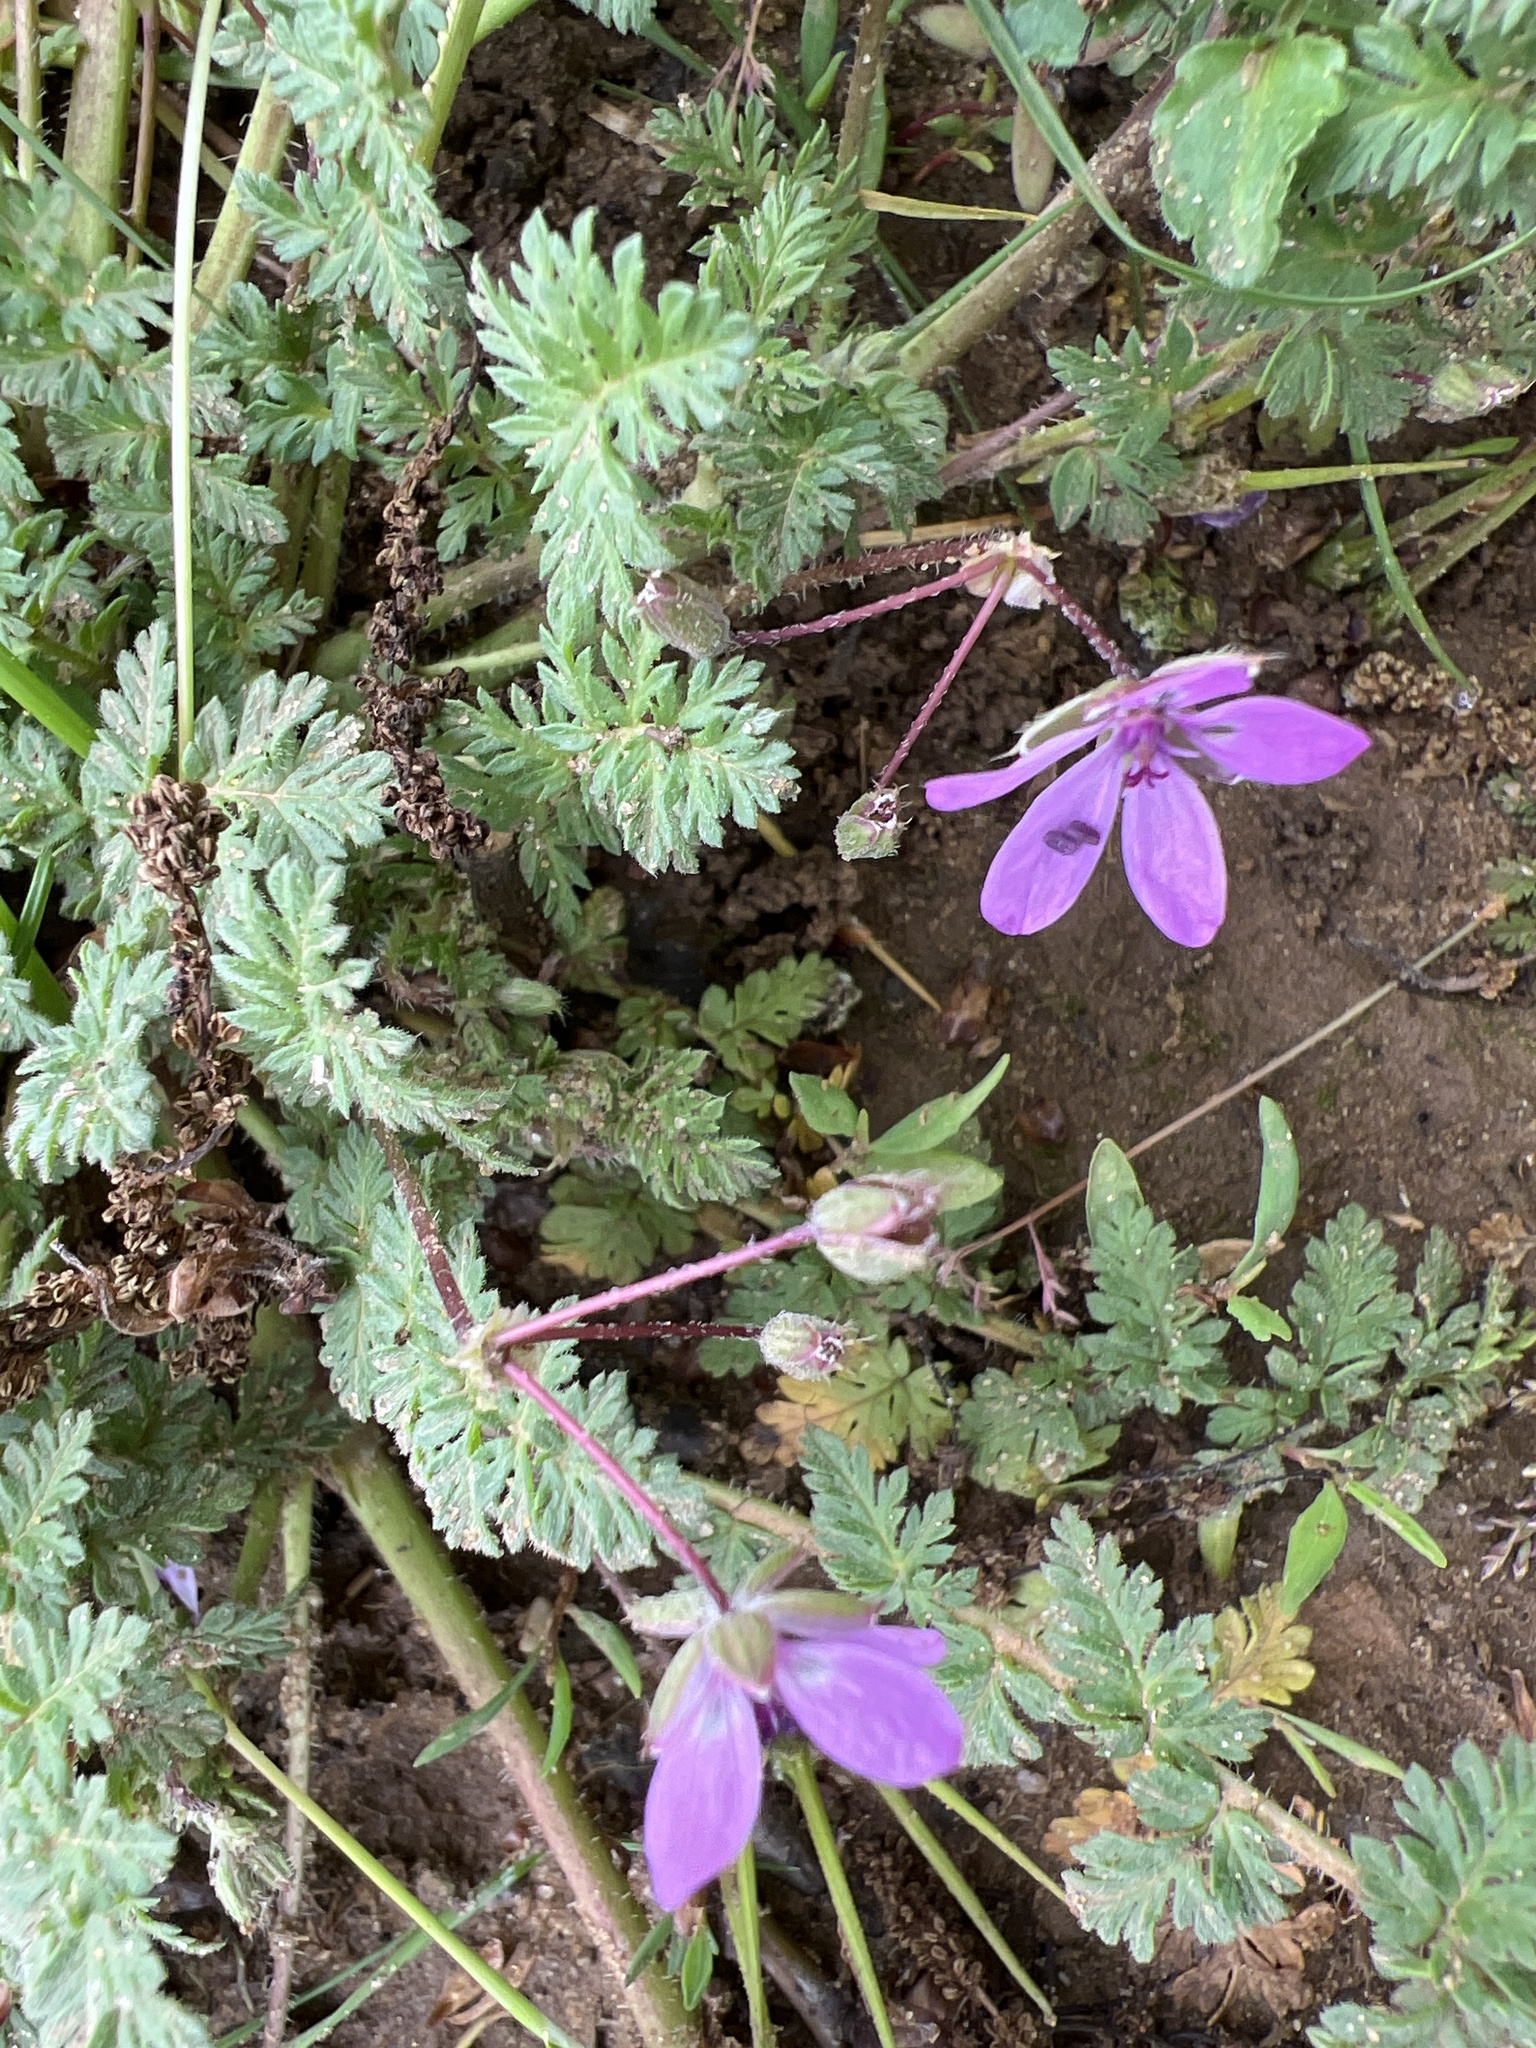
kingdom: Plantae
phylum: Tracheophyta
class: Magnoliopsida
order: Geraniales
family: Geraniaceae
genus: Erodium
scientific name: Erodium cicutarium
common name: Common stork's-bill
